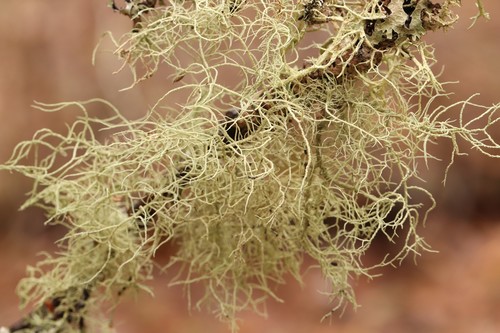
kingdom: Fungi
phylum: Ascomycota
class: Lecanoromycetes
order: Lecanorales
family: Parmeliaceae
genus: Usnea
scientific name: Usnea
